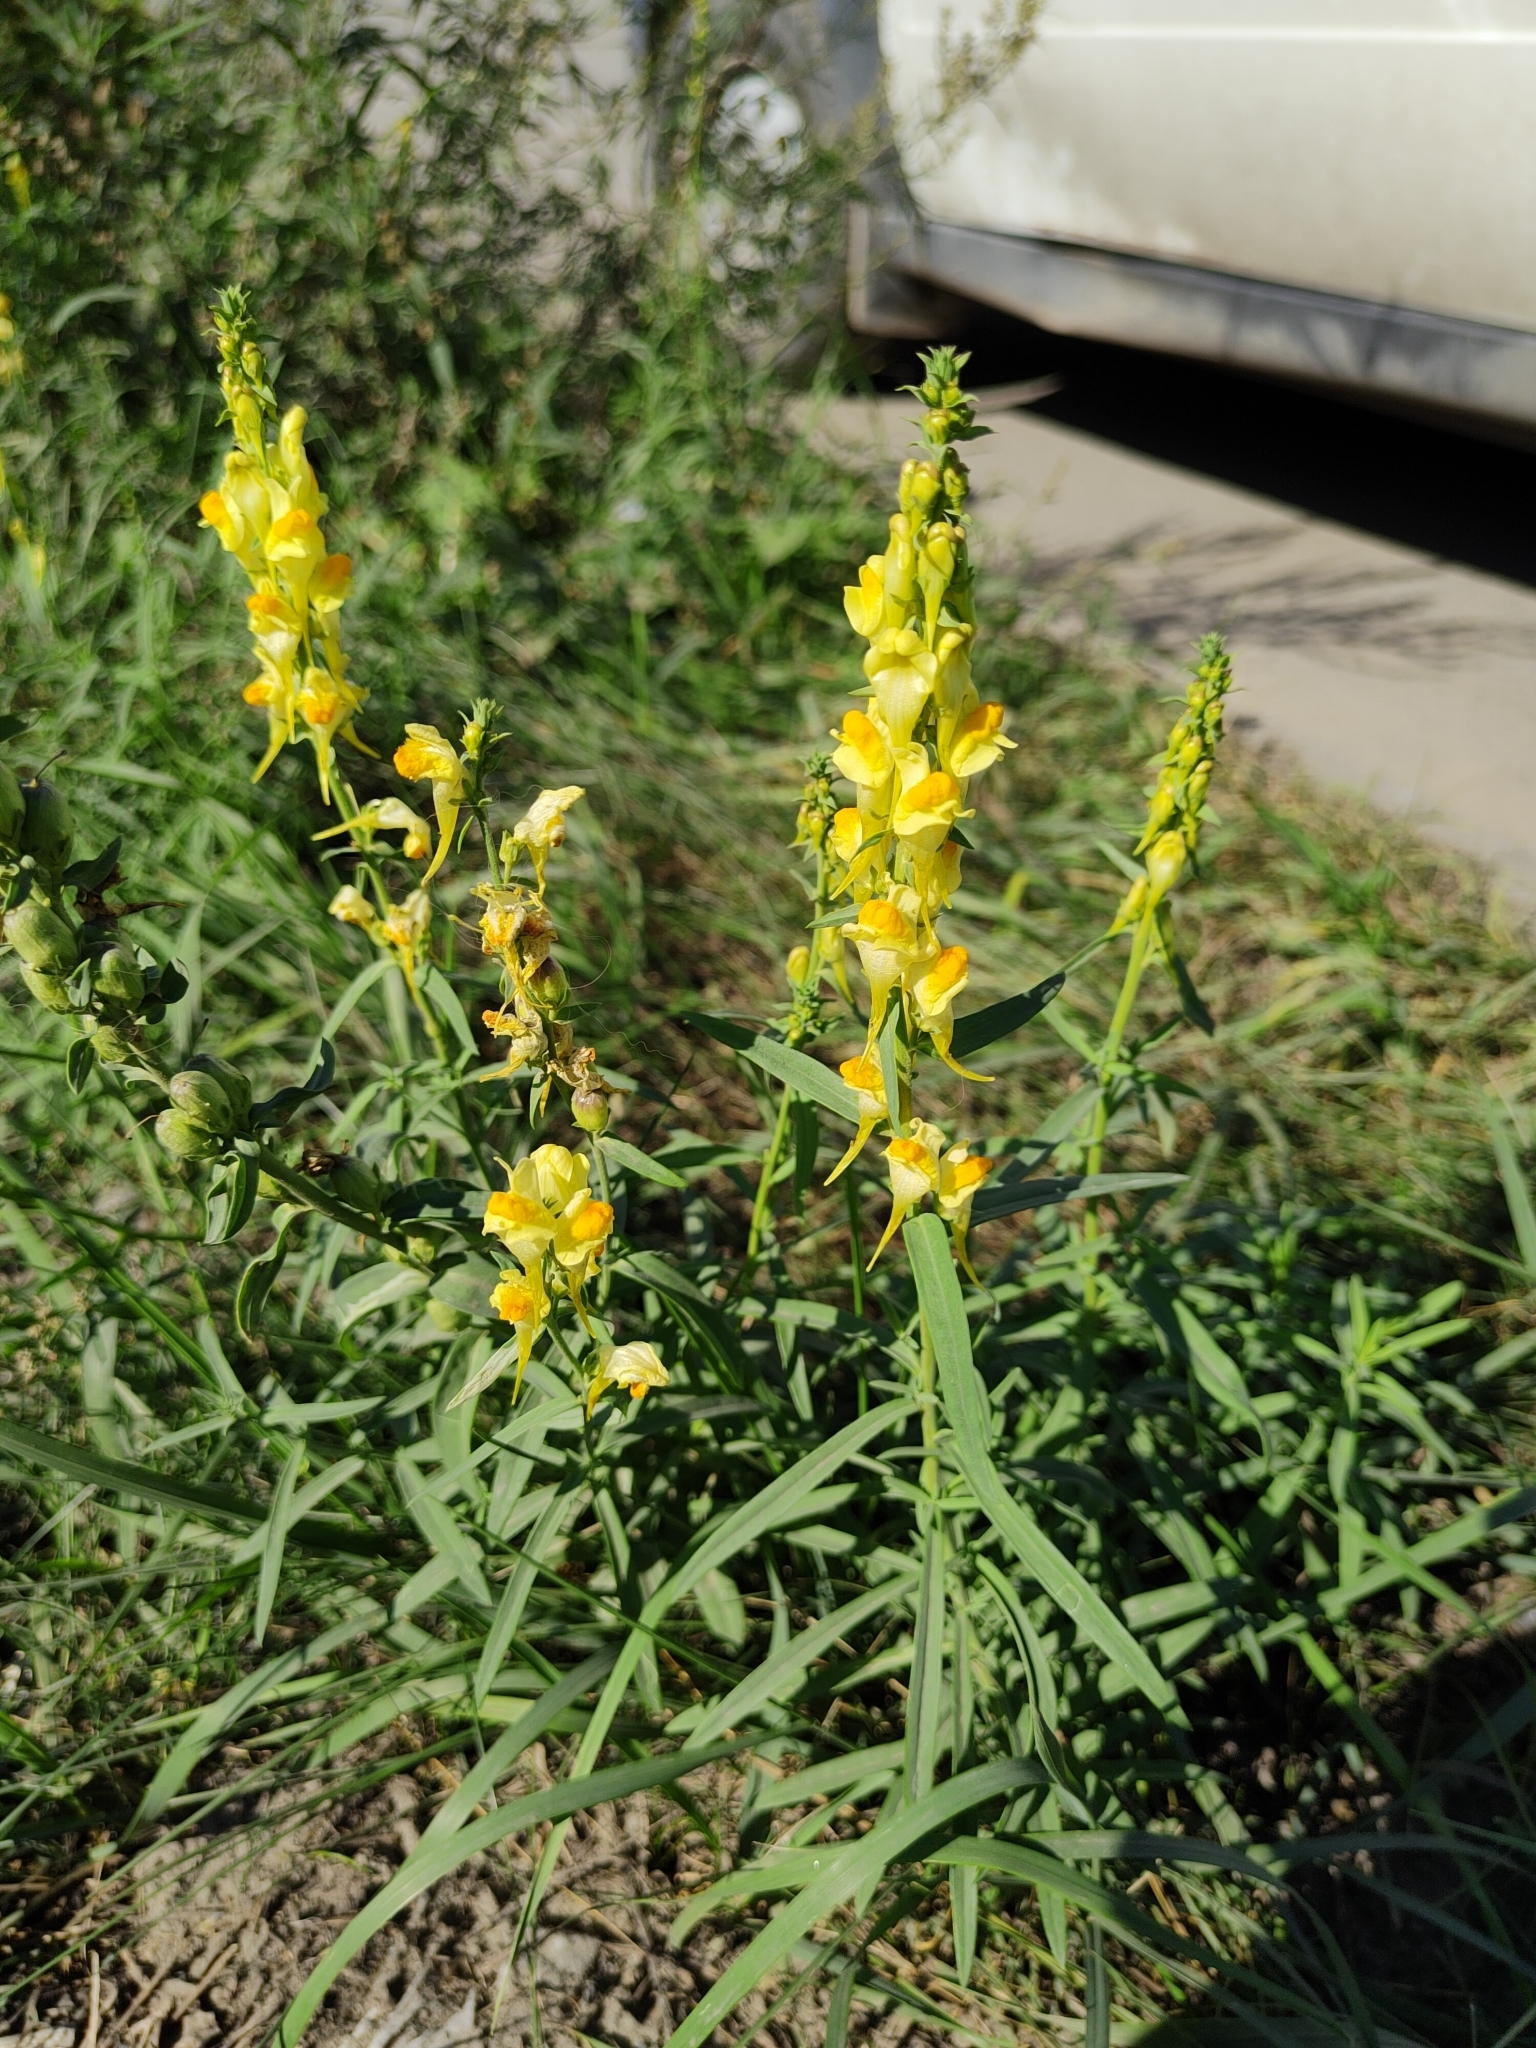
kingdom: Plantae
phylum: Tracheophyta
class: Magnoliopsida
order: Lamiales
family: Plantaginaceae
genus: Linaria
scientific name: Linaria vulgaris
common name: Butter and eggs
